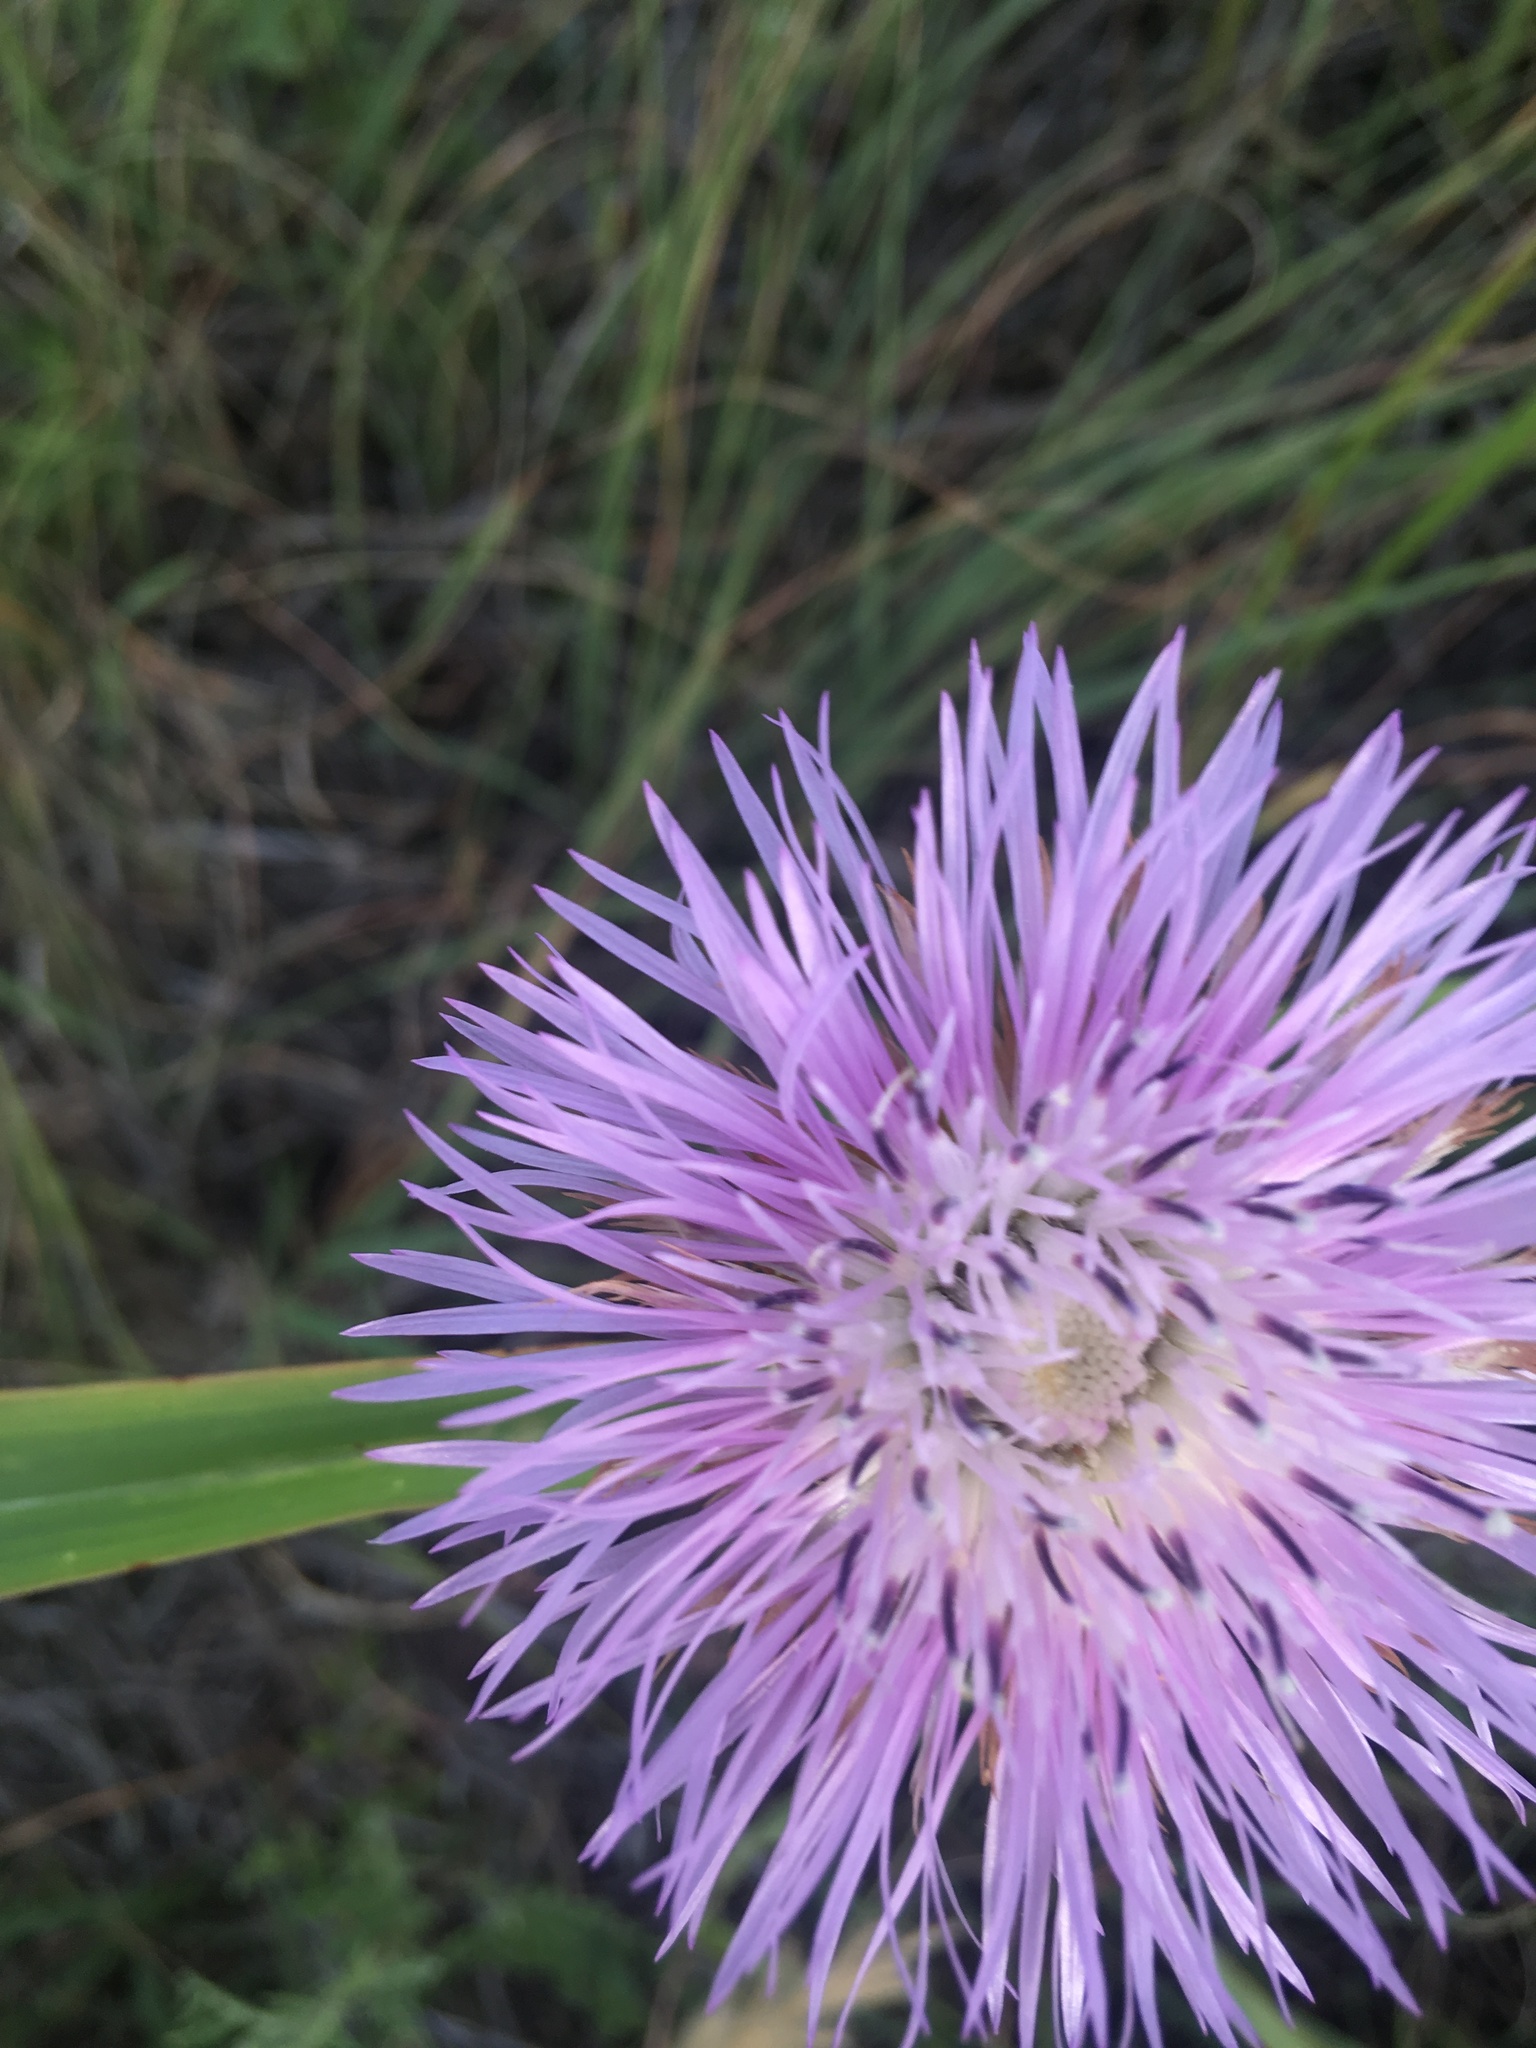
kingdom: Plantae
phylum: Tracheophyta
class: Magnoliopsida
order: Asterales
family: Asteraceae
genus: Plectocephalus
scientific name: Plectocephalus americanus
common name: American basket-flower
